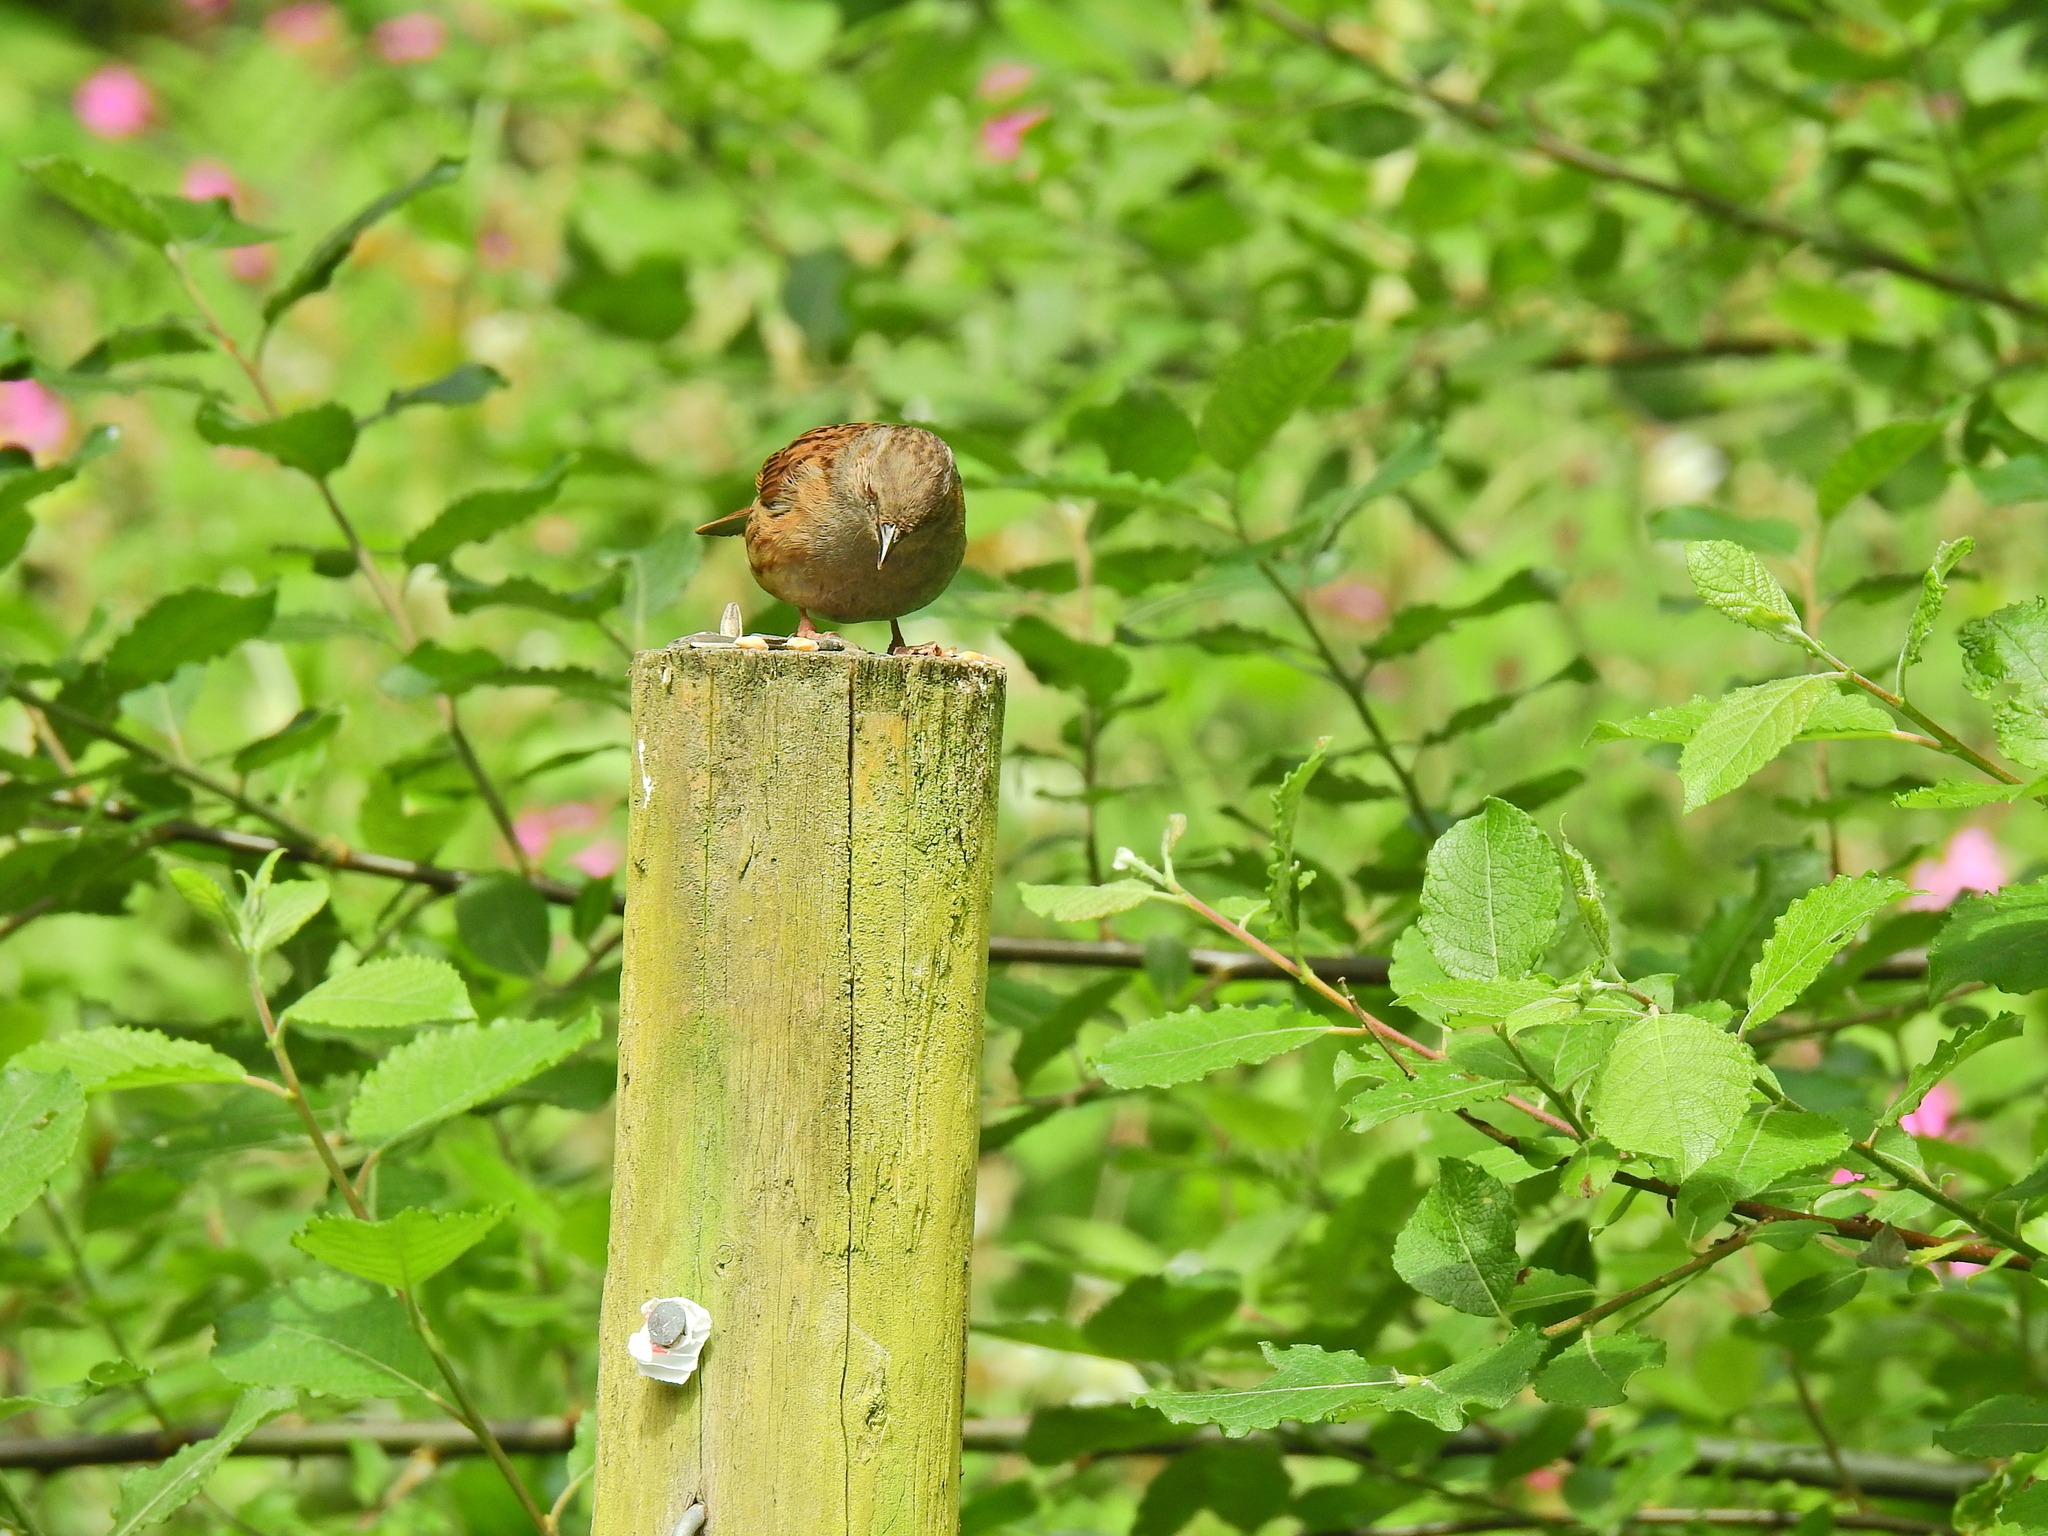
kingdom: Animalia
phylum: Chordata
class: Aves
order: Passeriformes
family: Prunellidae
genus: Prunella
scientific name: Prunella modularis
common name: Dunnock
